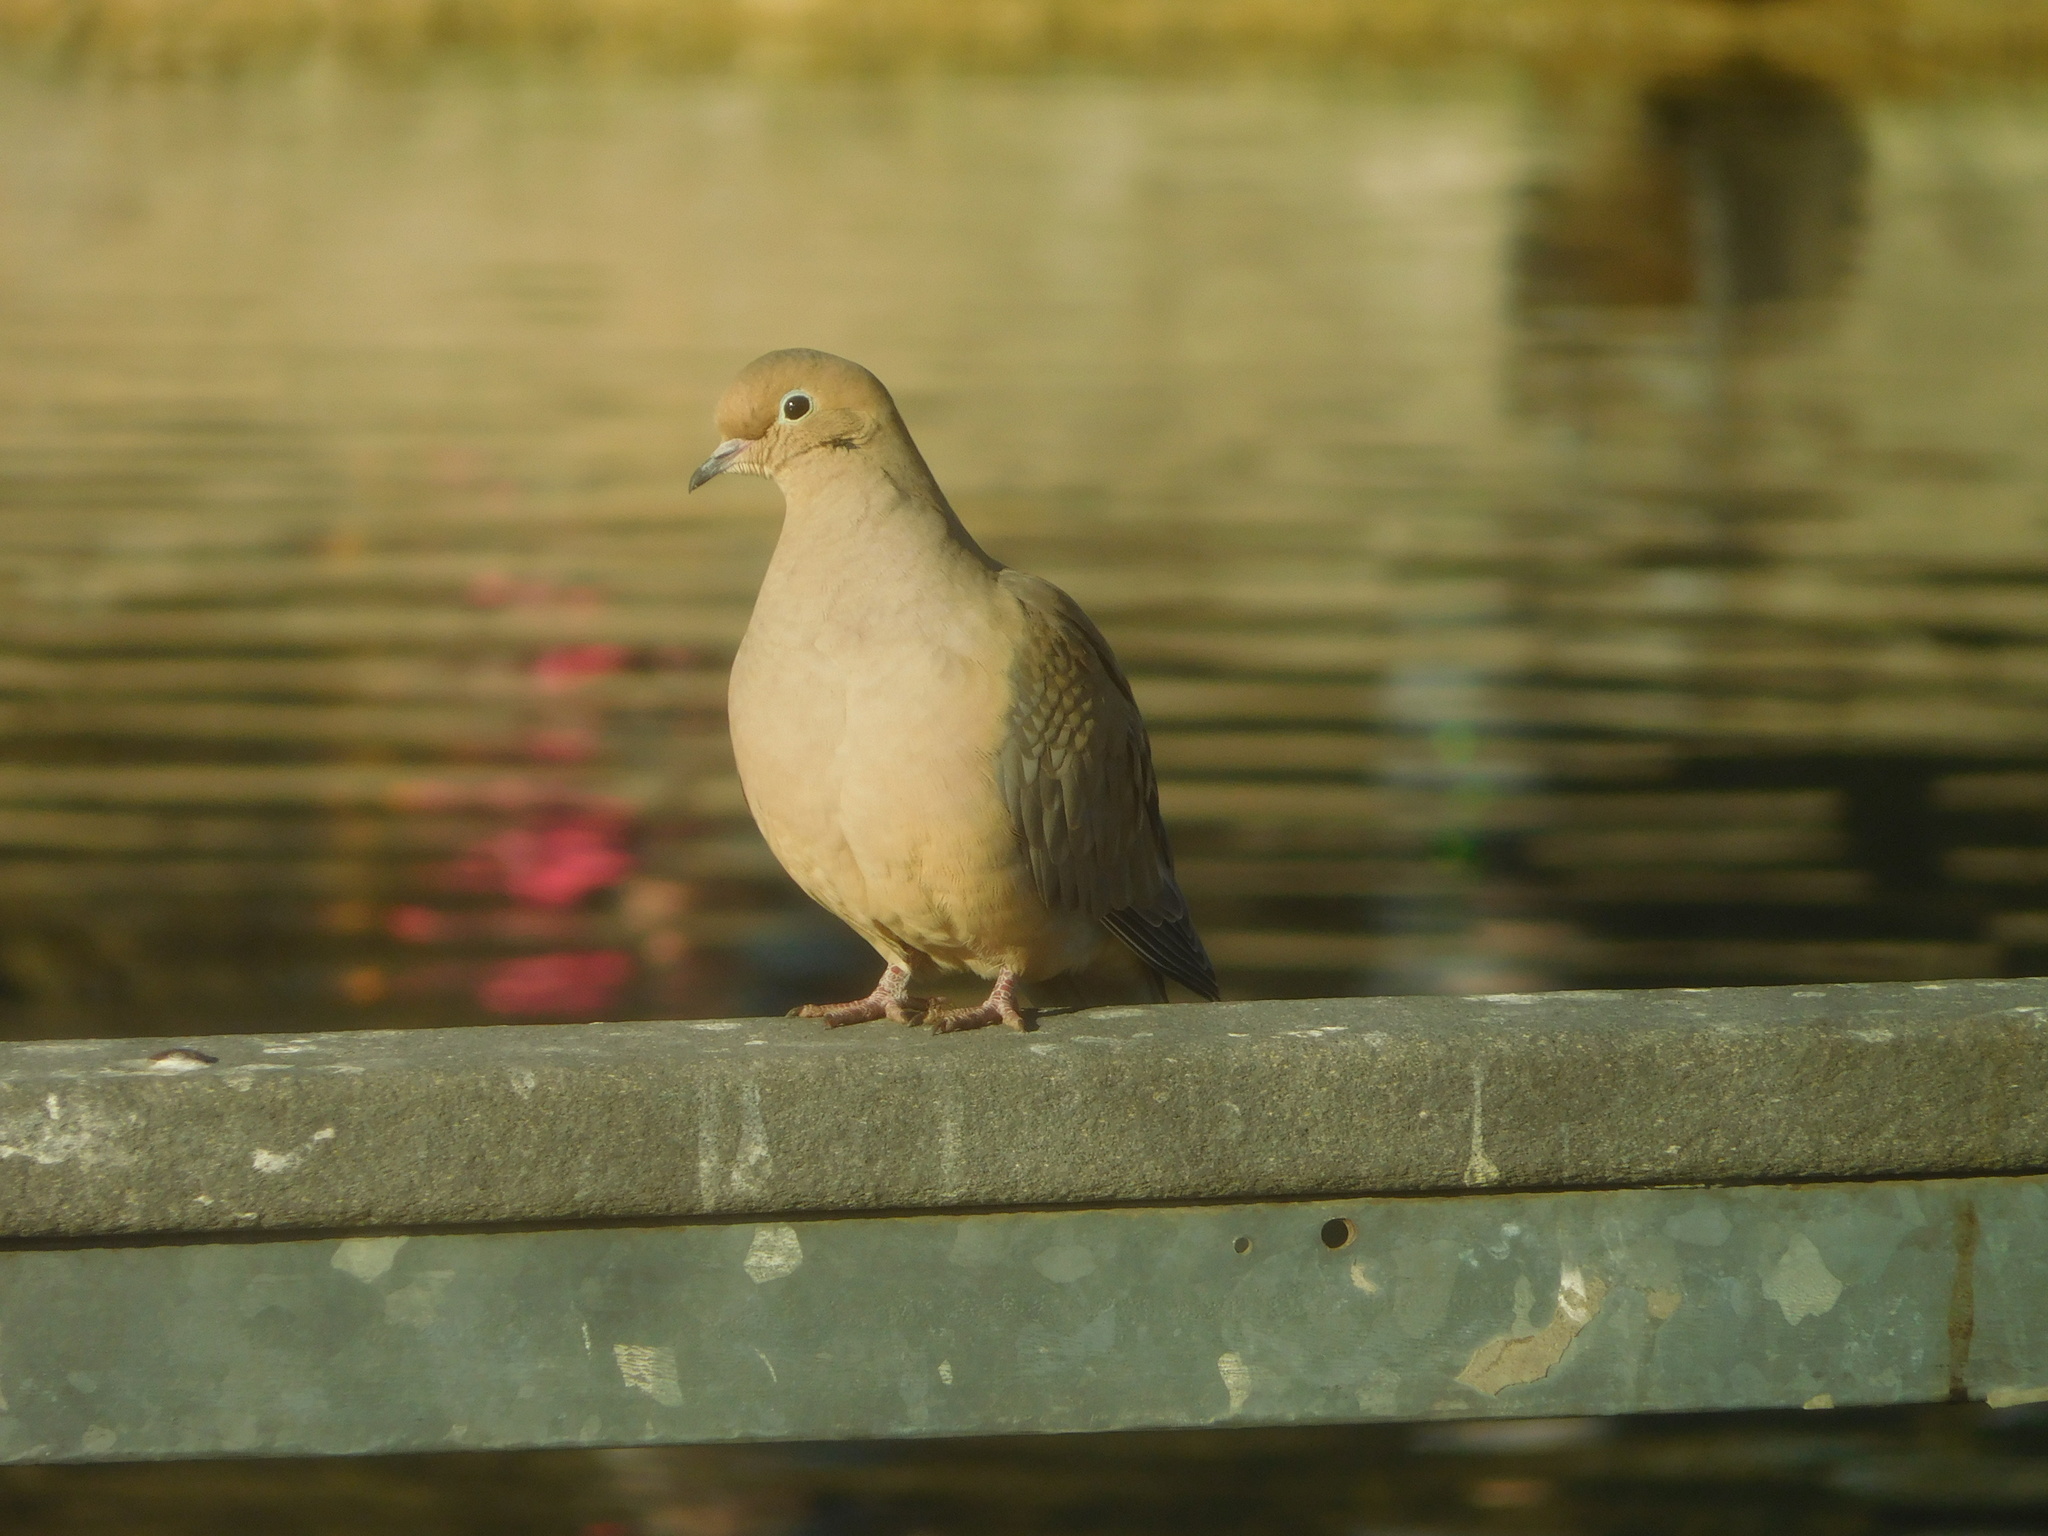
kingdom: Animalia
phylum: Chordata
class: Aves
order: Columbiformes
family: Columbidae
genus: Zenaida
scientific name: Zenaida macroura
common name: Mourning dove
